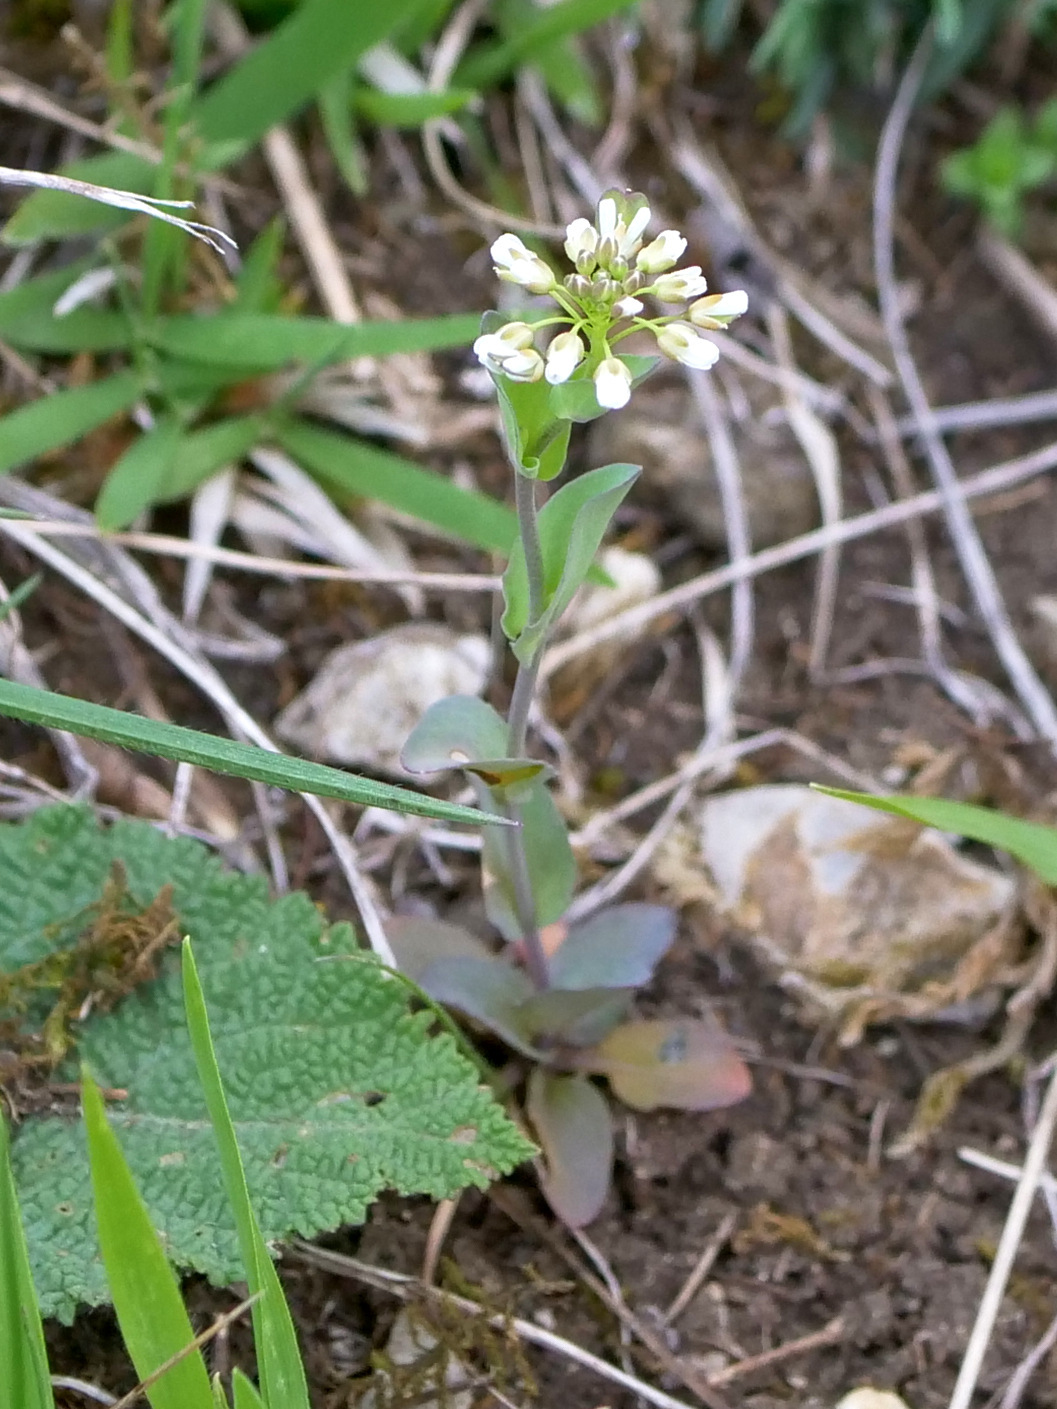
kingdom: Plantae
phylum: Tracheophyta
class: Magnoliopsida
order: Brassicales
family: Brassicaceae
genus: Noccaea
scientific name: Noccaea perfoliata
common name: Perfoliate pennycress
